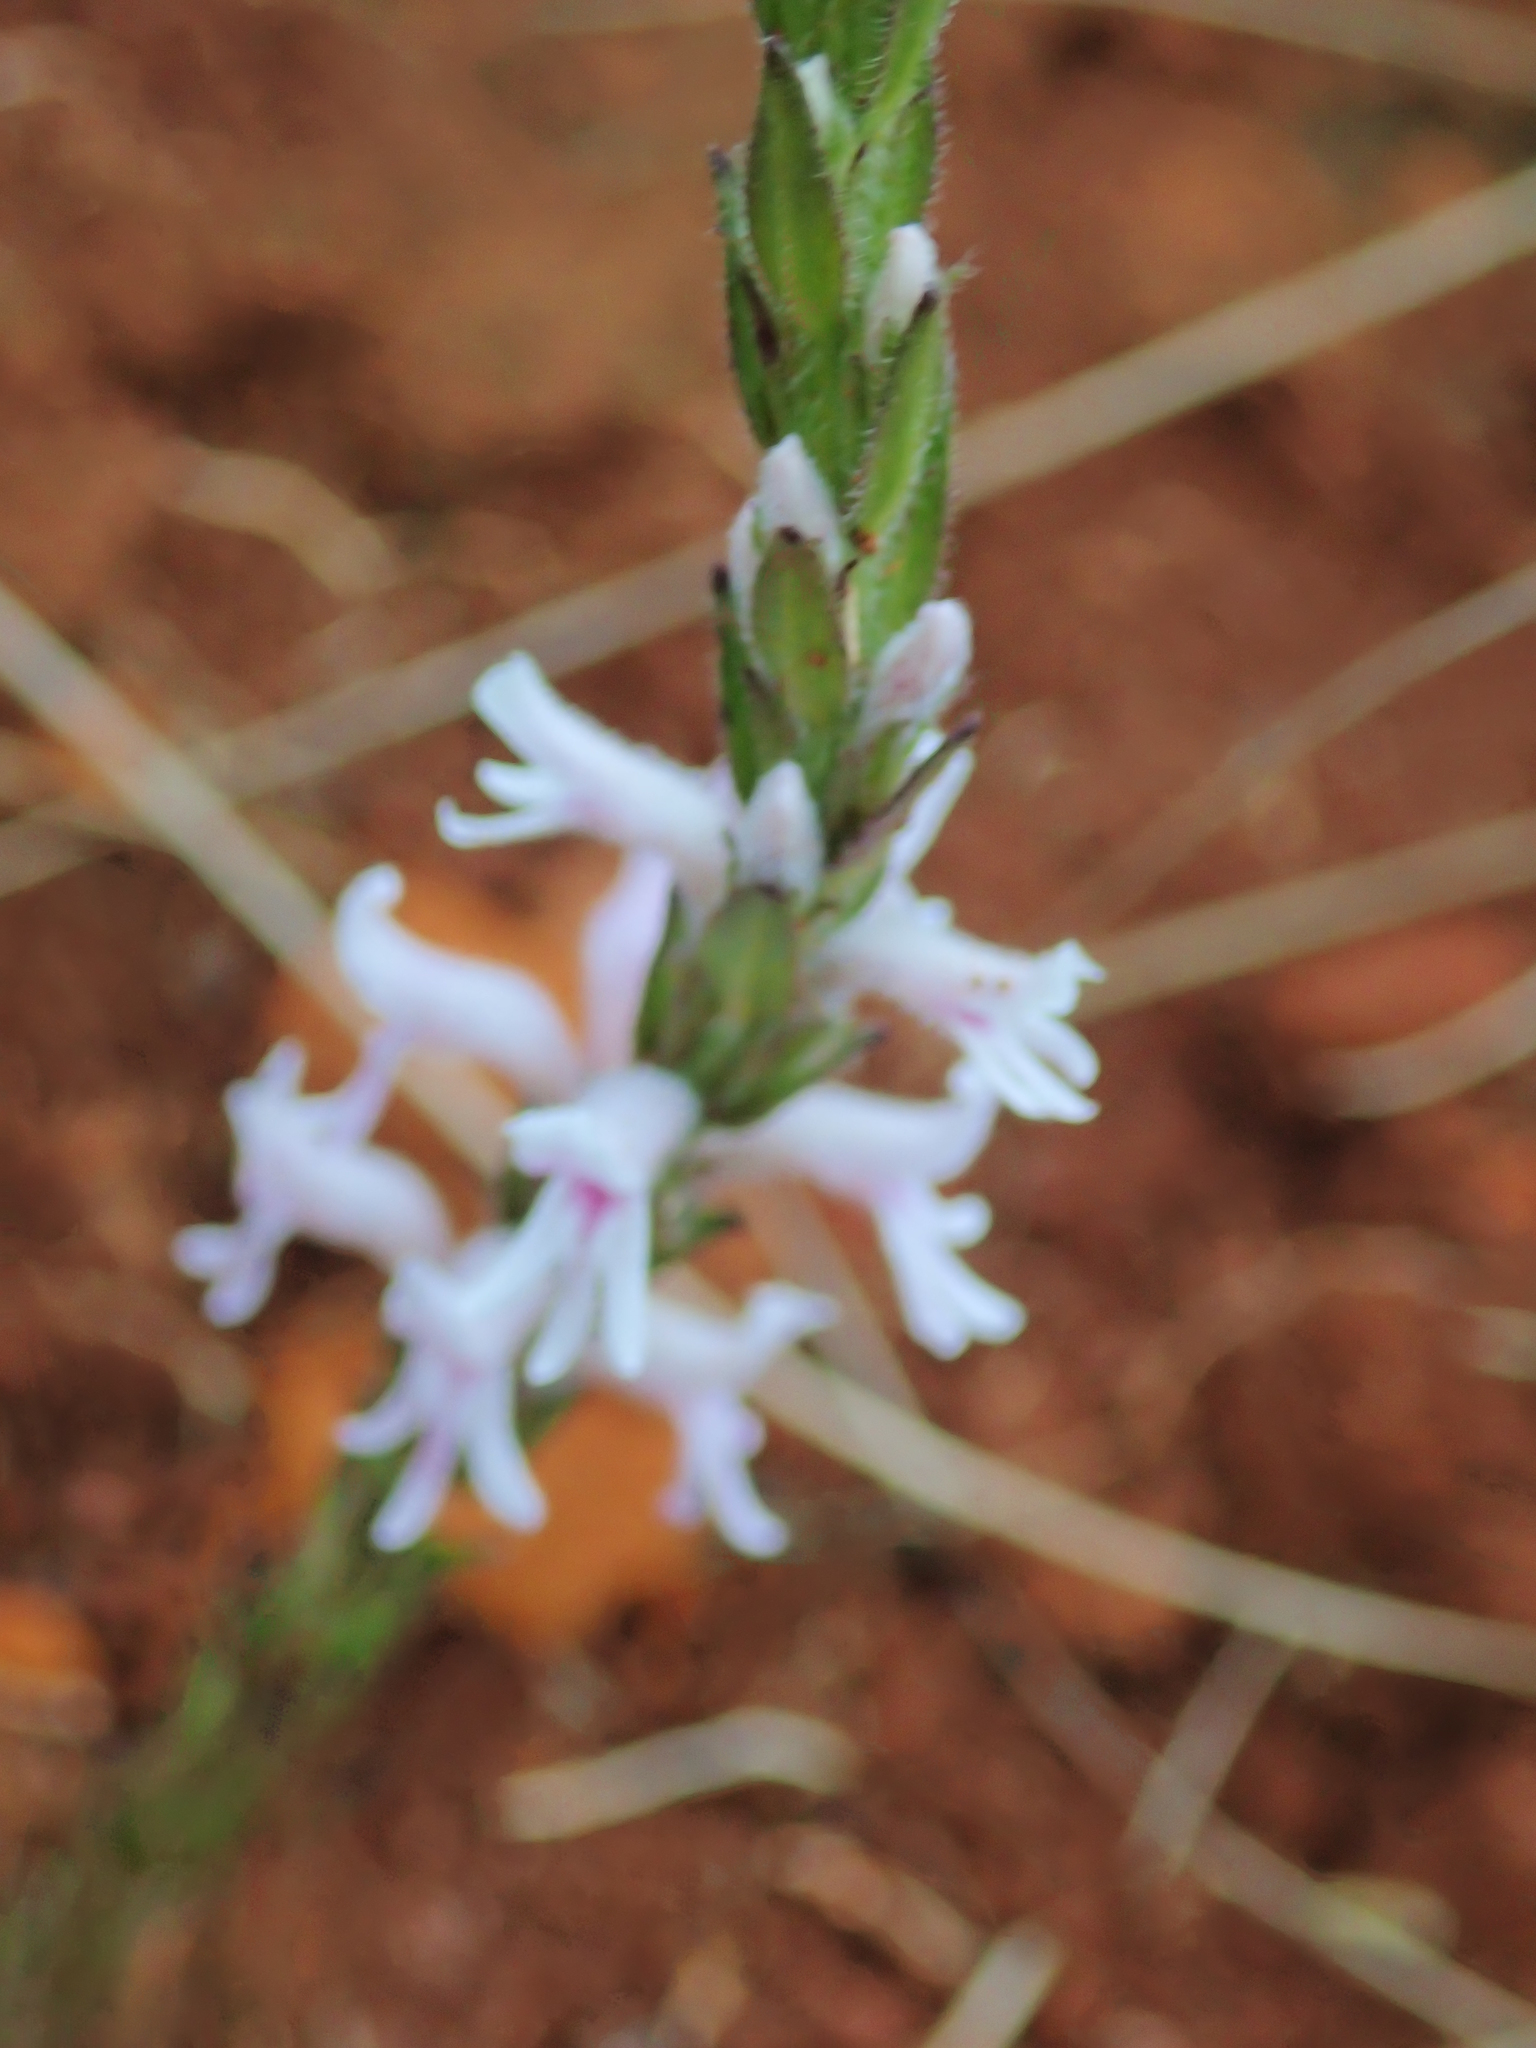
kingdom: Plantae
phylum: Tracheophyta
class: Magnoliopsida
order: Lamiales
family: Orobanchaceae
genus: Striga
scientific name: Striga bilabiata
